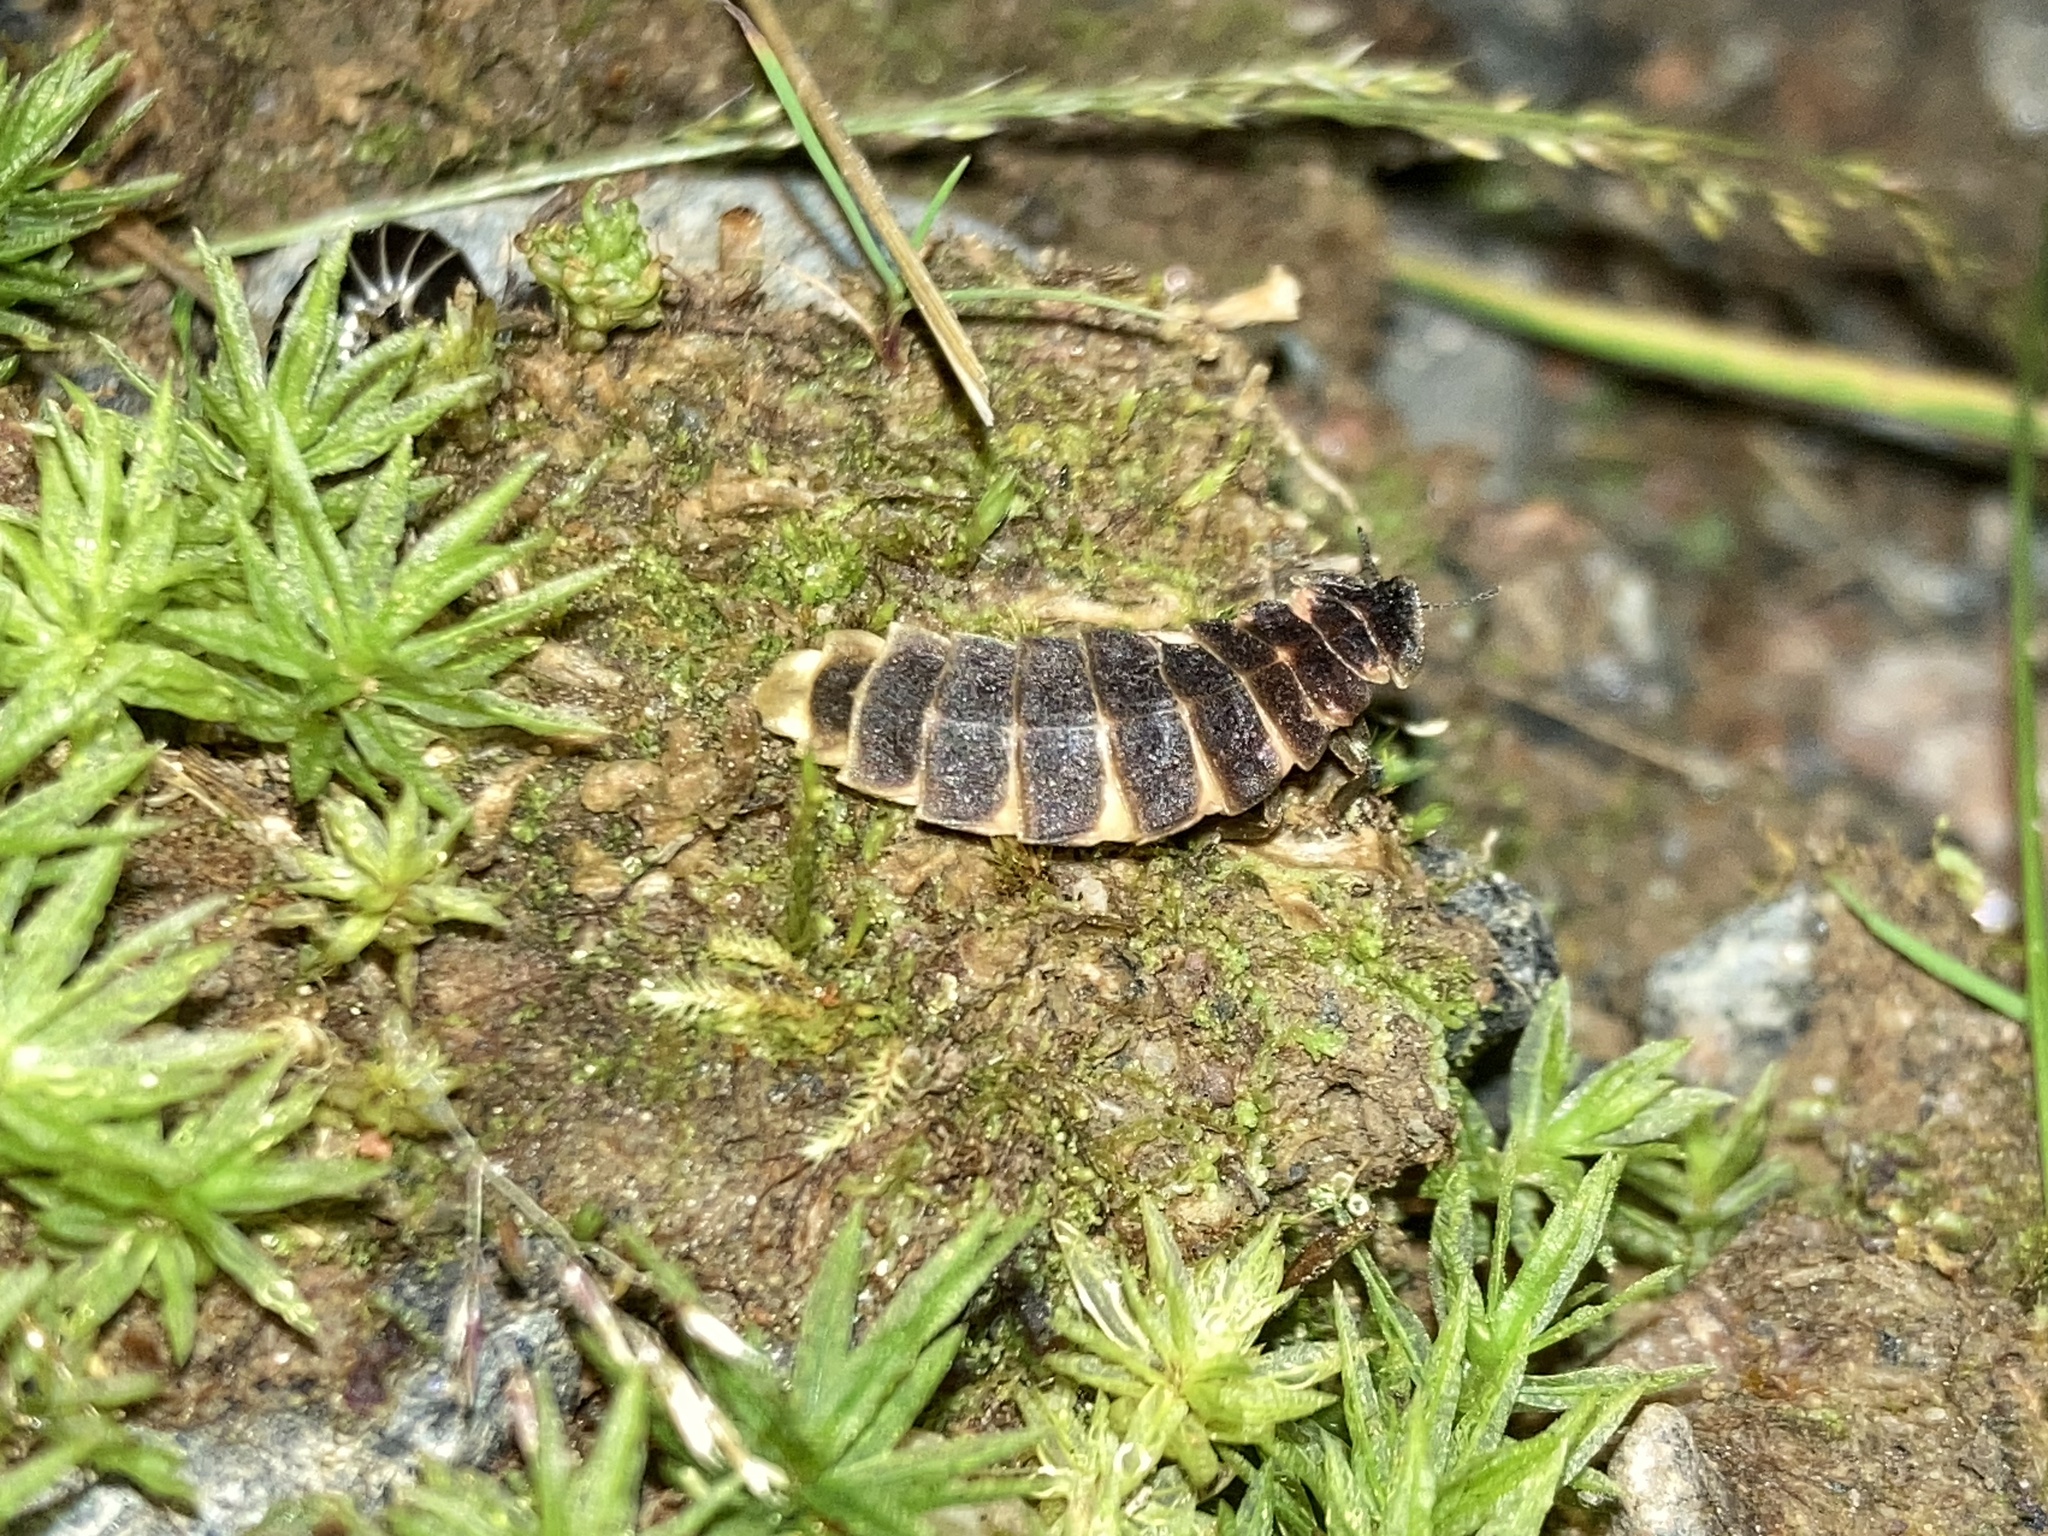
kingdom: Animalia
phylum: Arthropoda
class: Insecta
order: Coleoptera
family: Lampyridae
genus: Lampyris
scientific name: Lampyris noctiluca
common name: Glow-worm
